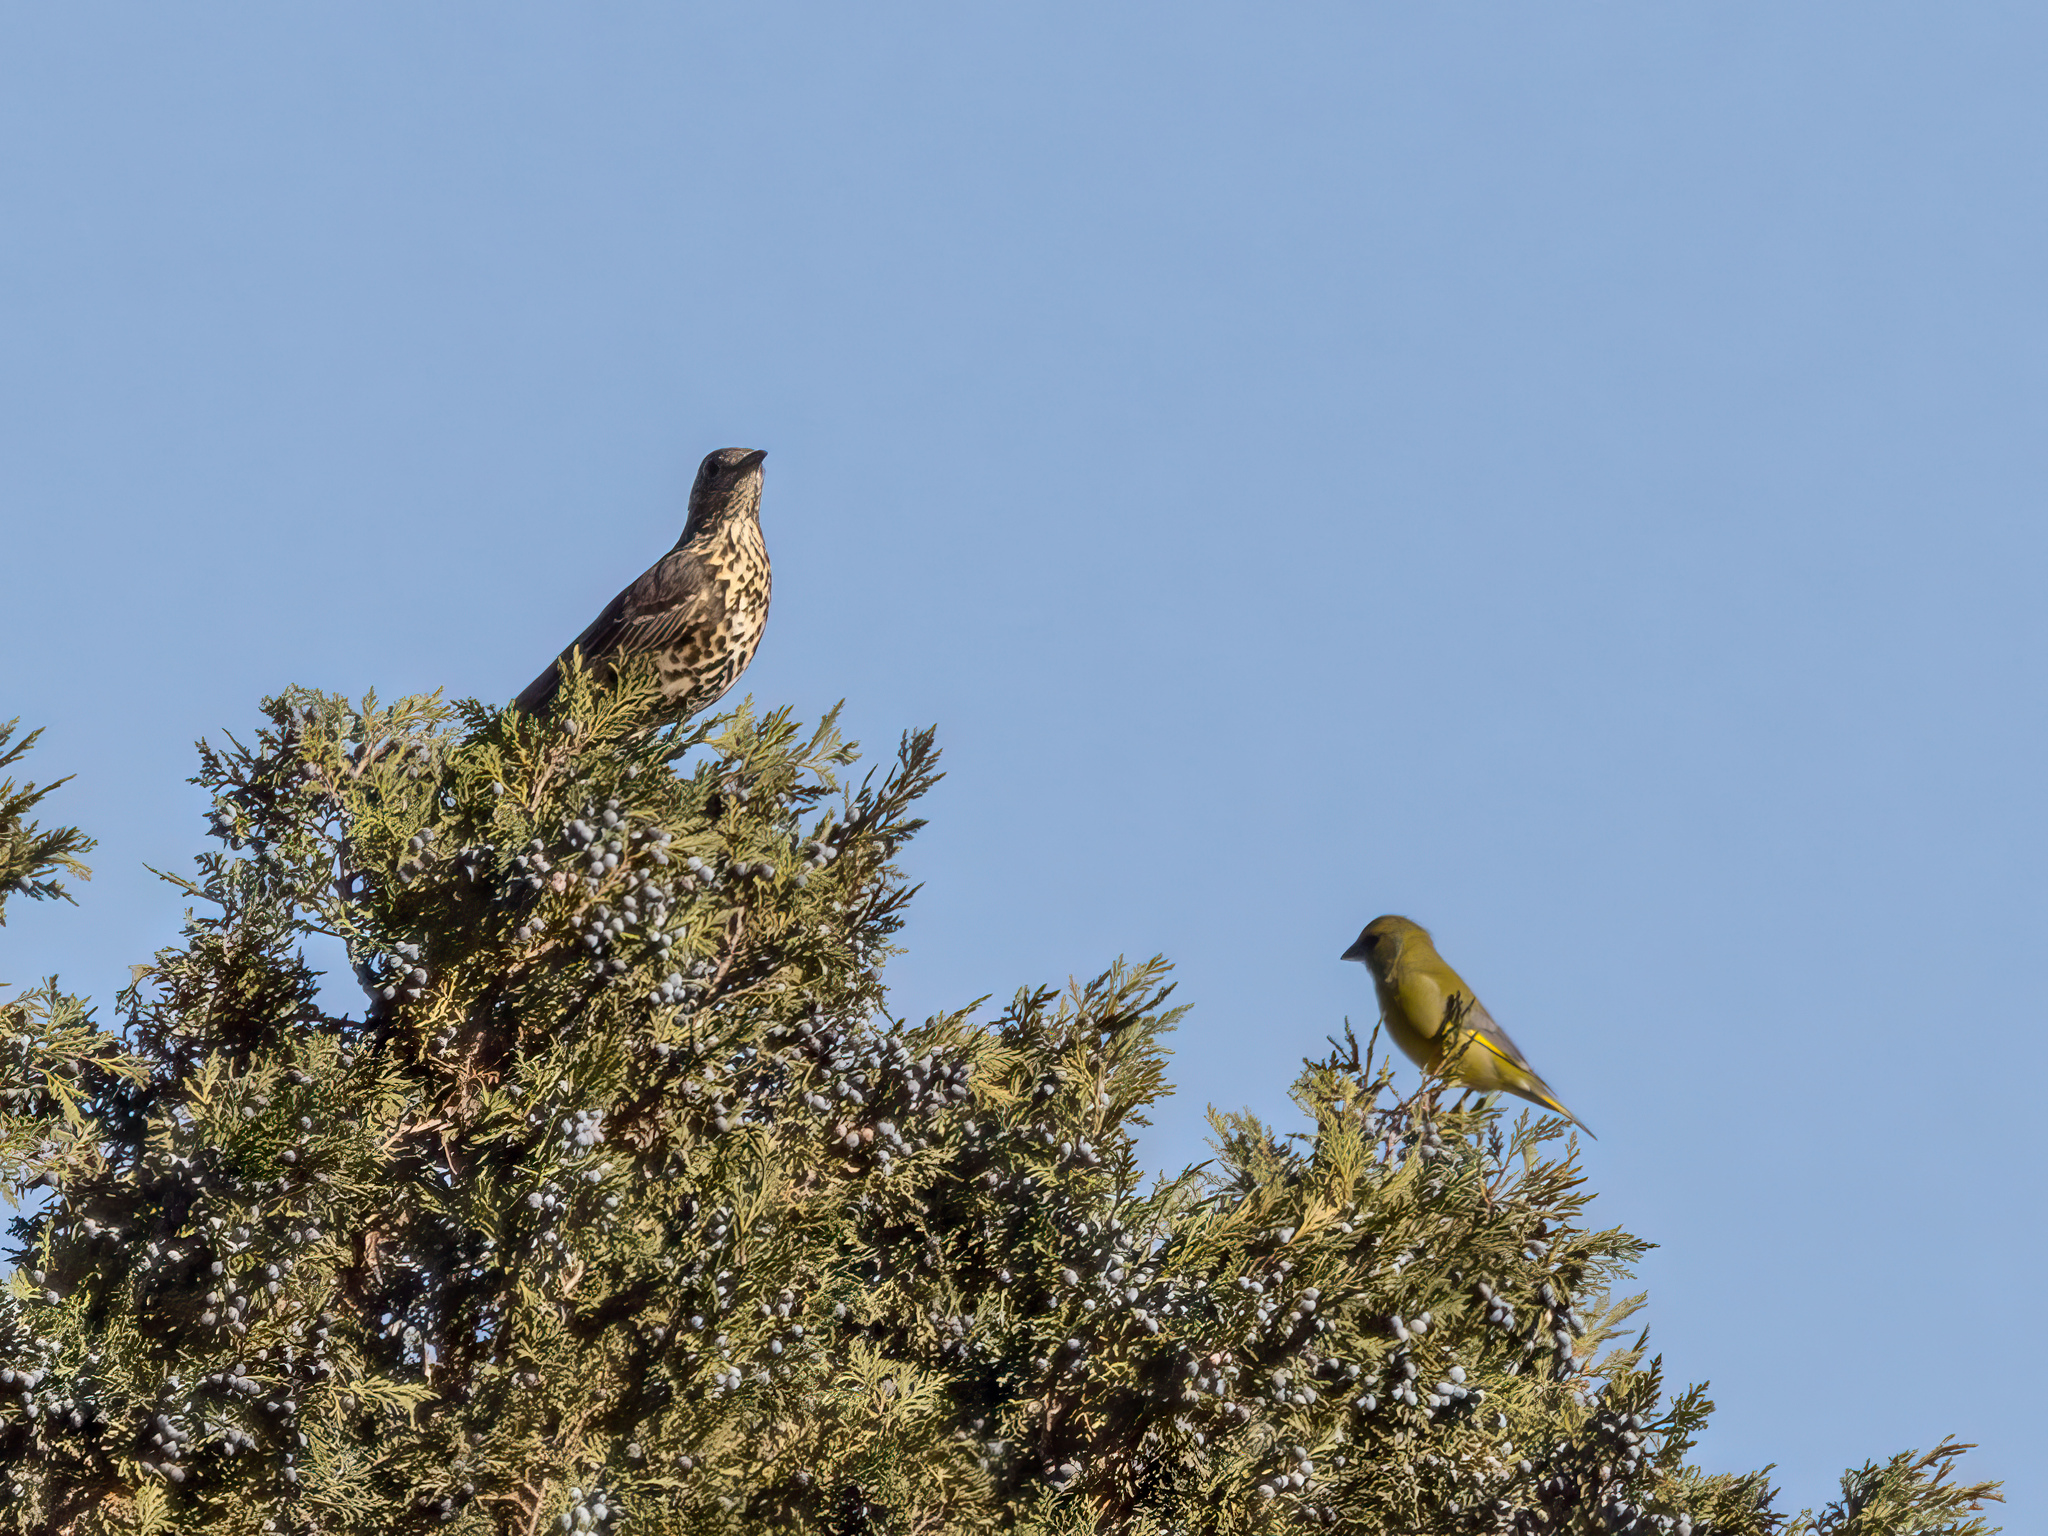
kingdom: Plantae
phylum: Tracheophyta
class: Liliopsida
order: Poales
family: Poaceae
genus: Chloris
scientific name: Chloris chloris
